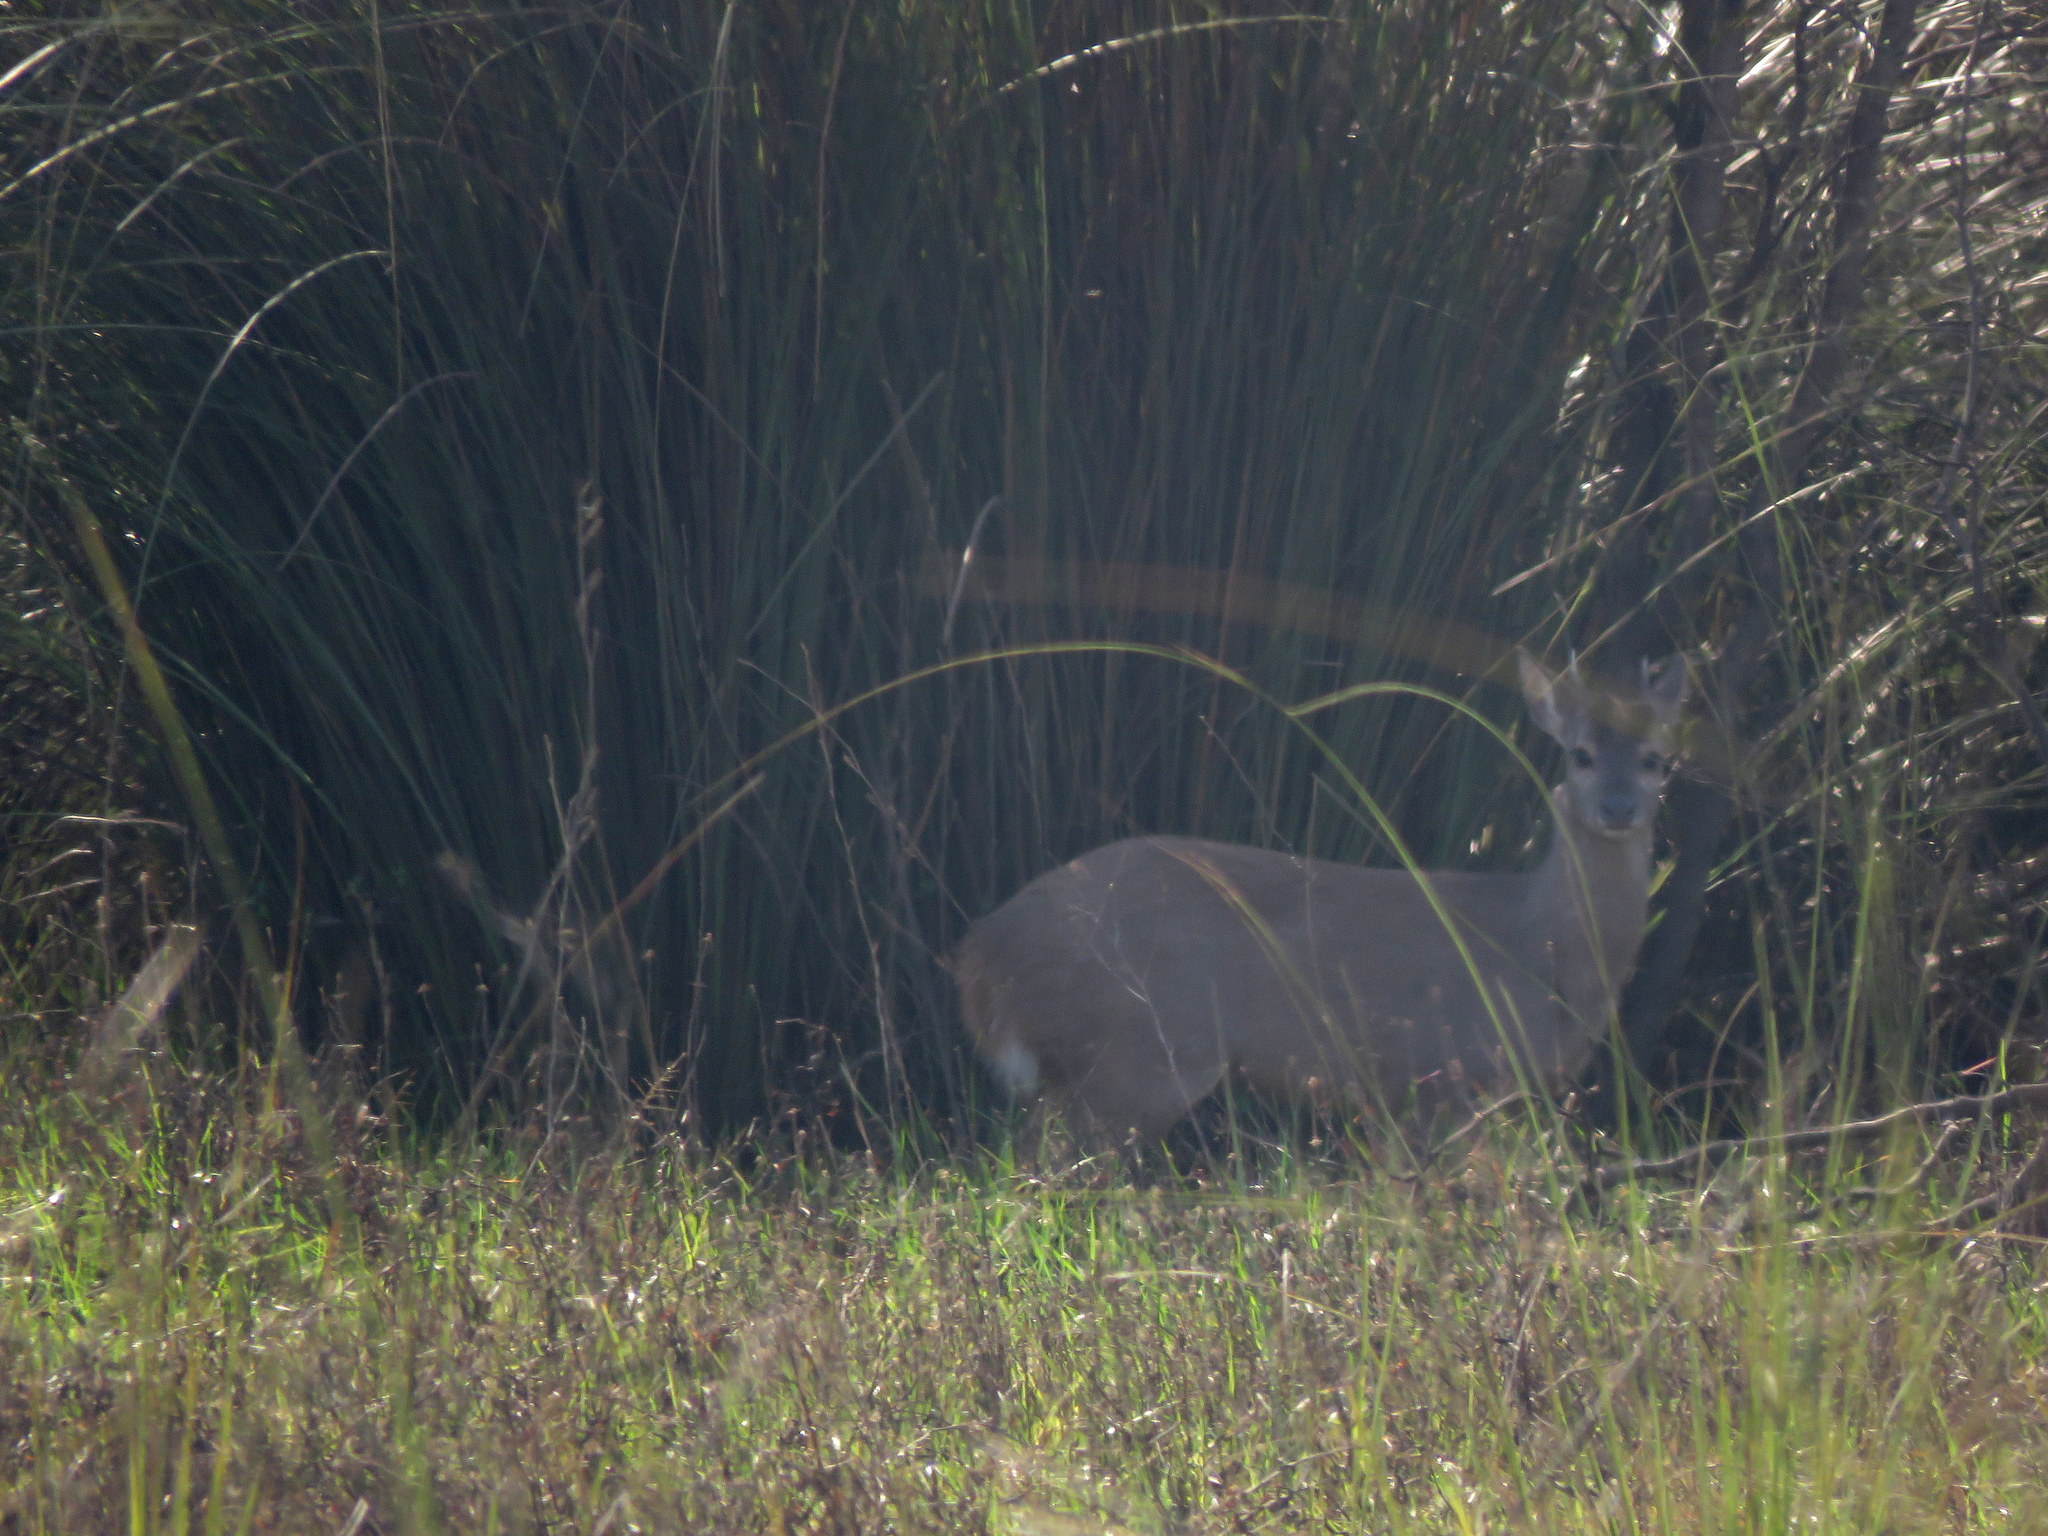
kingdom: Animalia
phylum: Chordata
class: Mammalia
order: Artiodactyla
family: Cervidae
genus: Mazama
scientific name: Mazama gouazoubira
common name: Gray brocket
